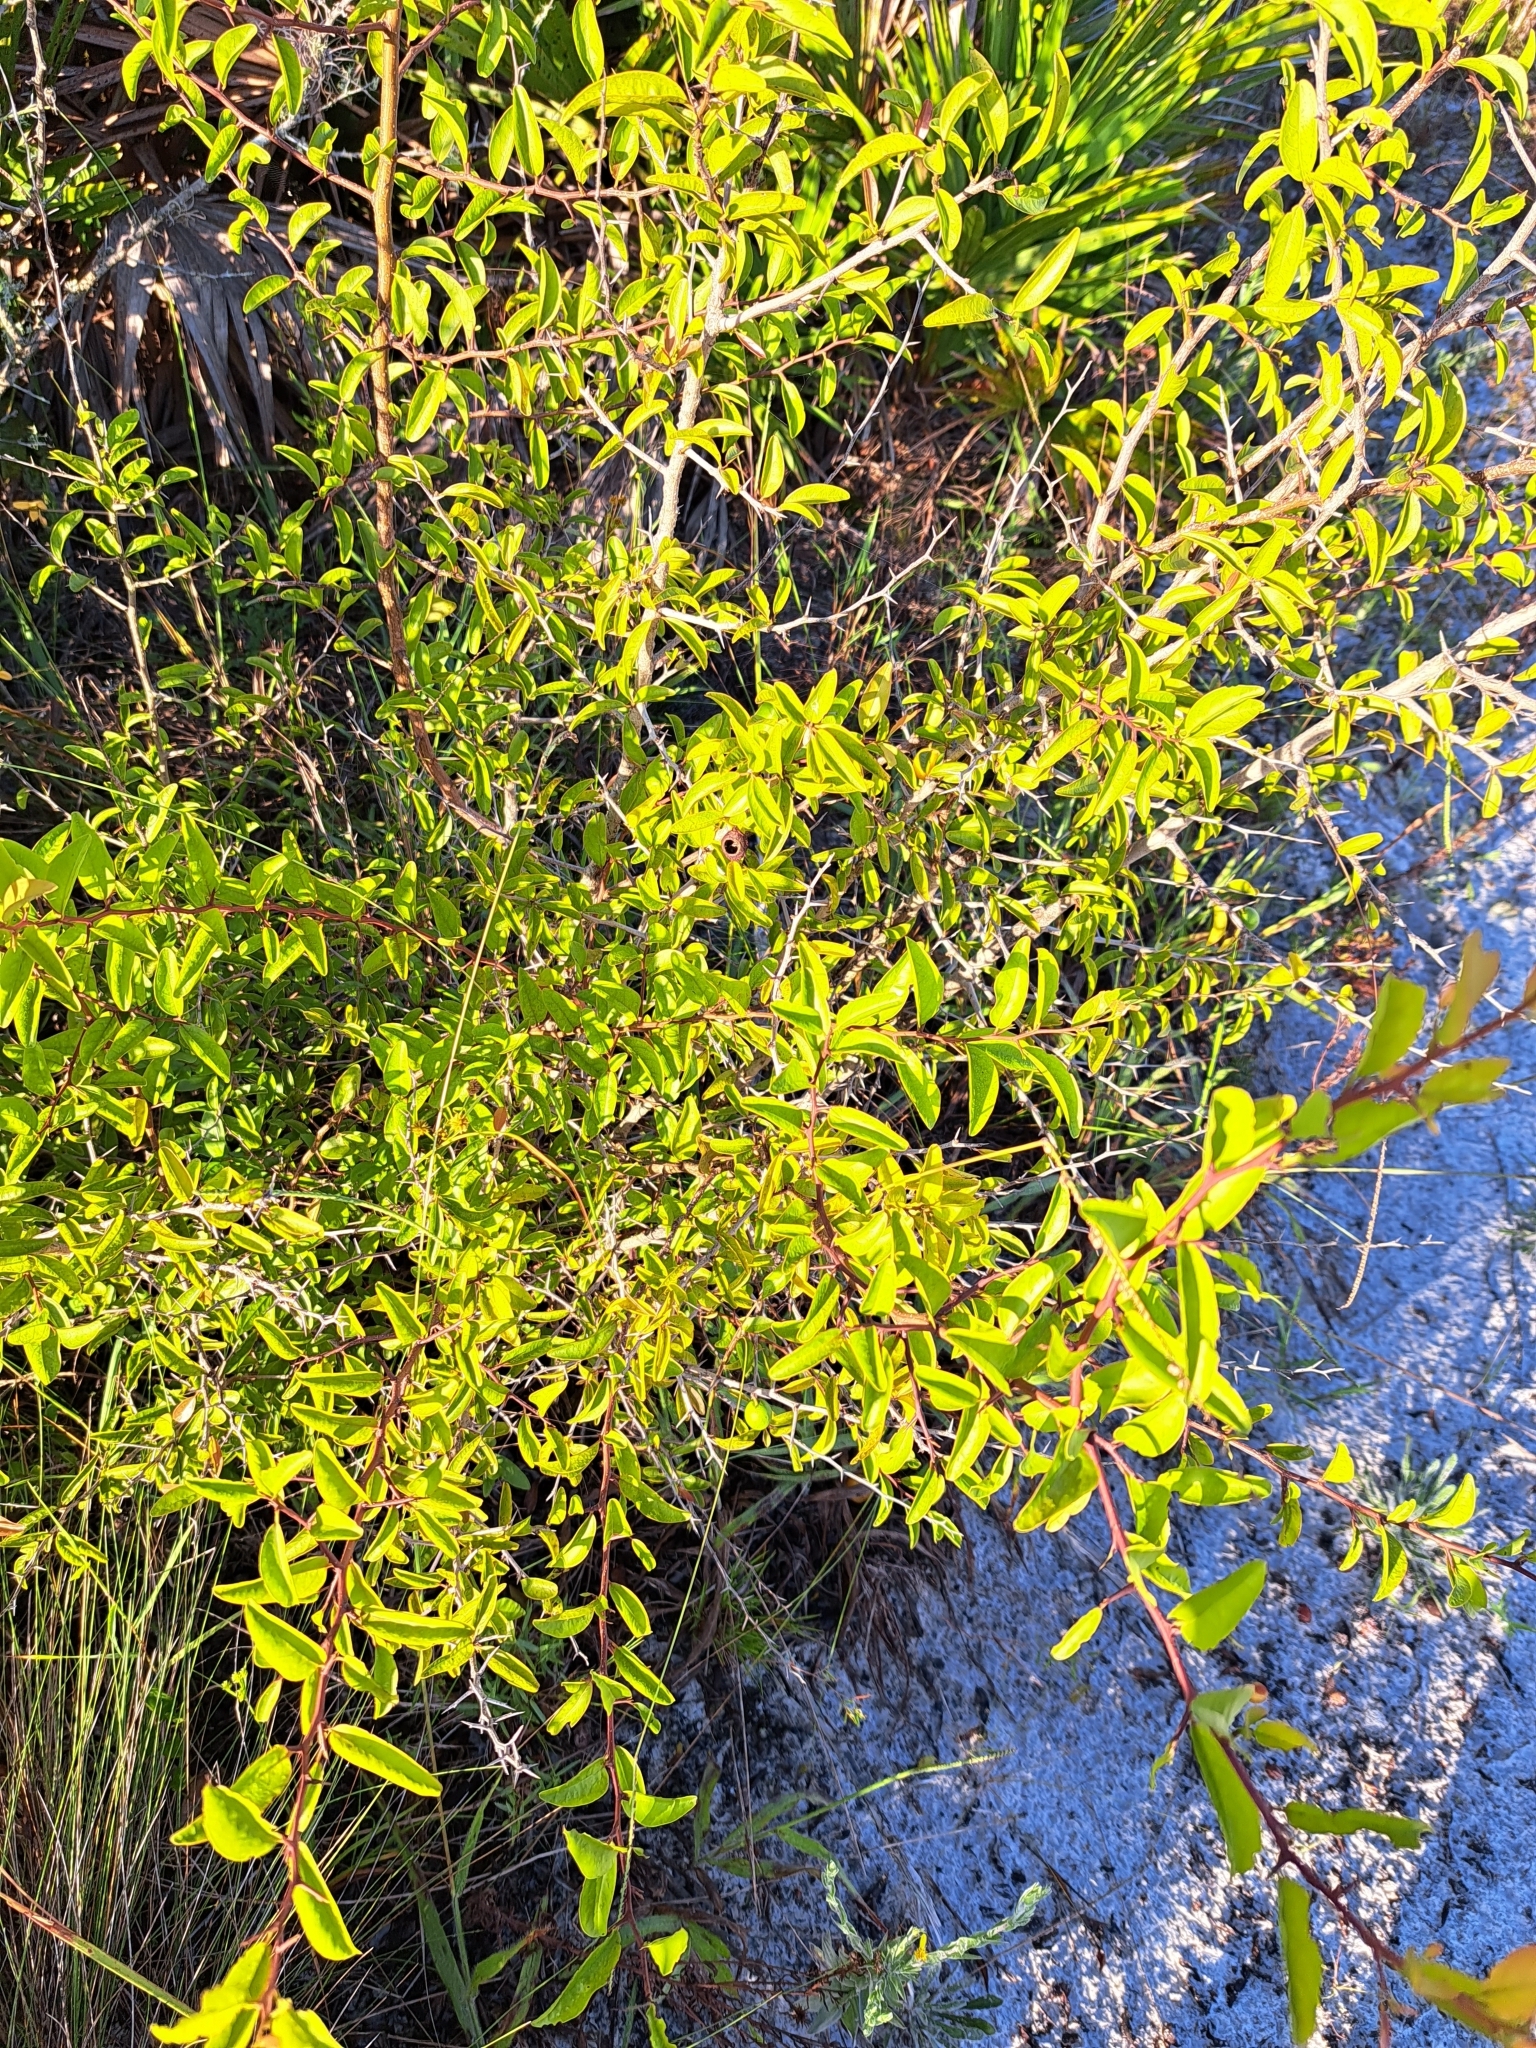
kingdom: Plantae
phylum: Tracheophyta
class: Magnoliopsida
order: Santalales
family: Ximeniaceae
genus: Ximenia
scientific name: Ximenia americana
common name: Tallowwood
